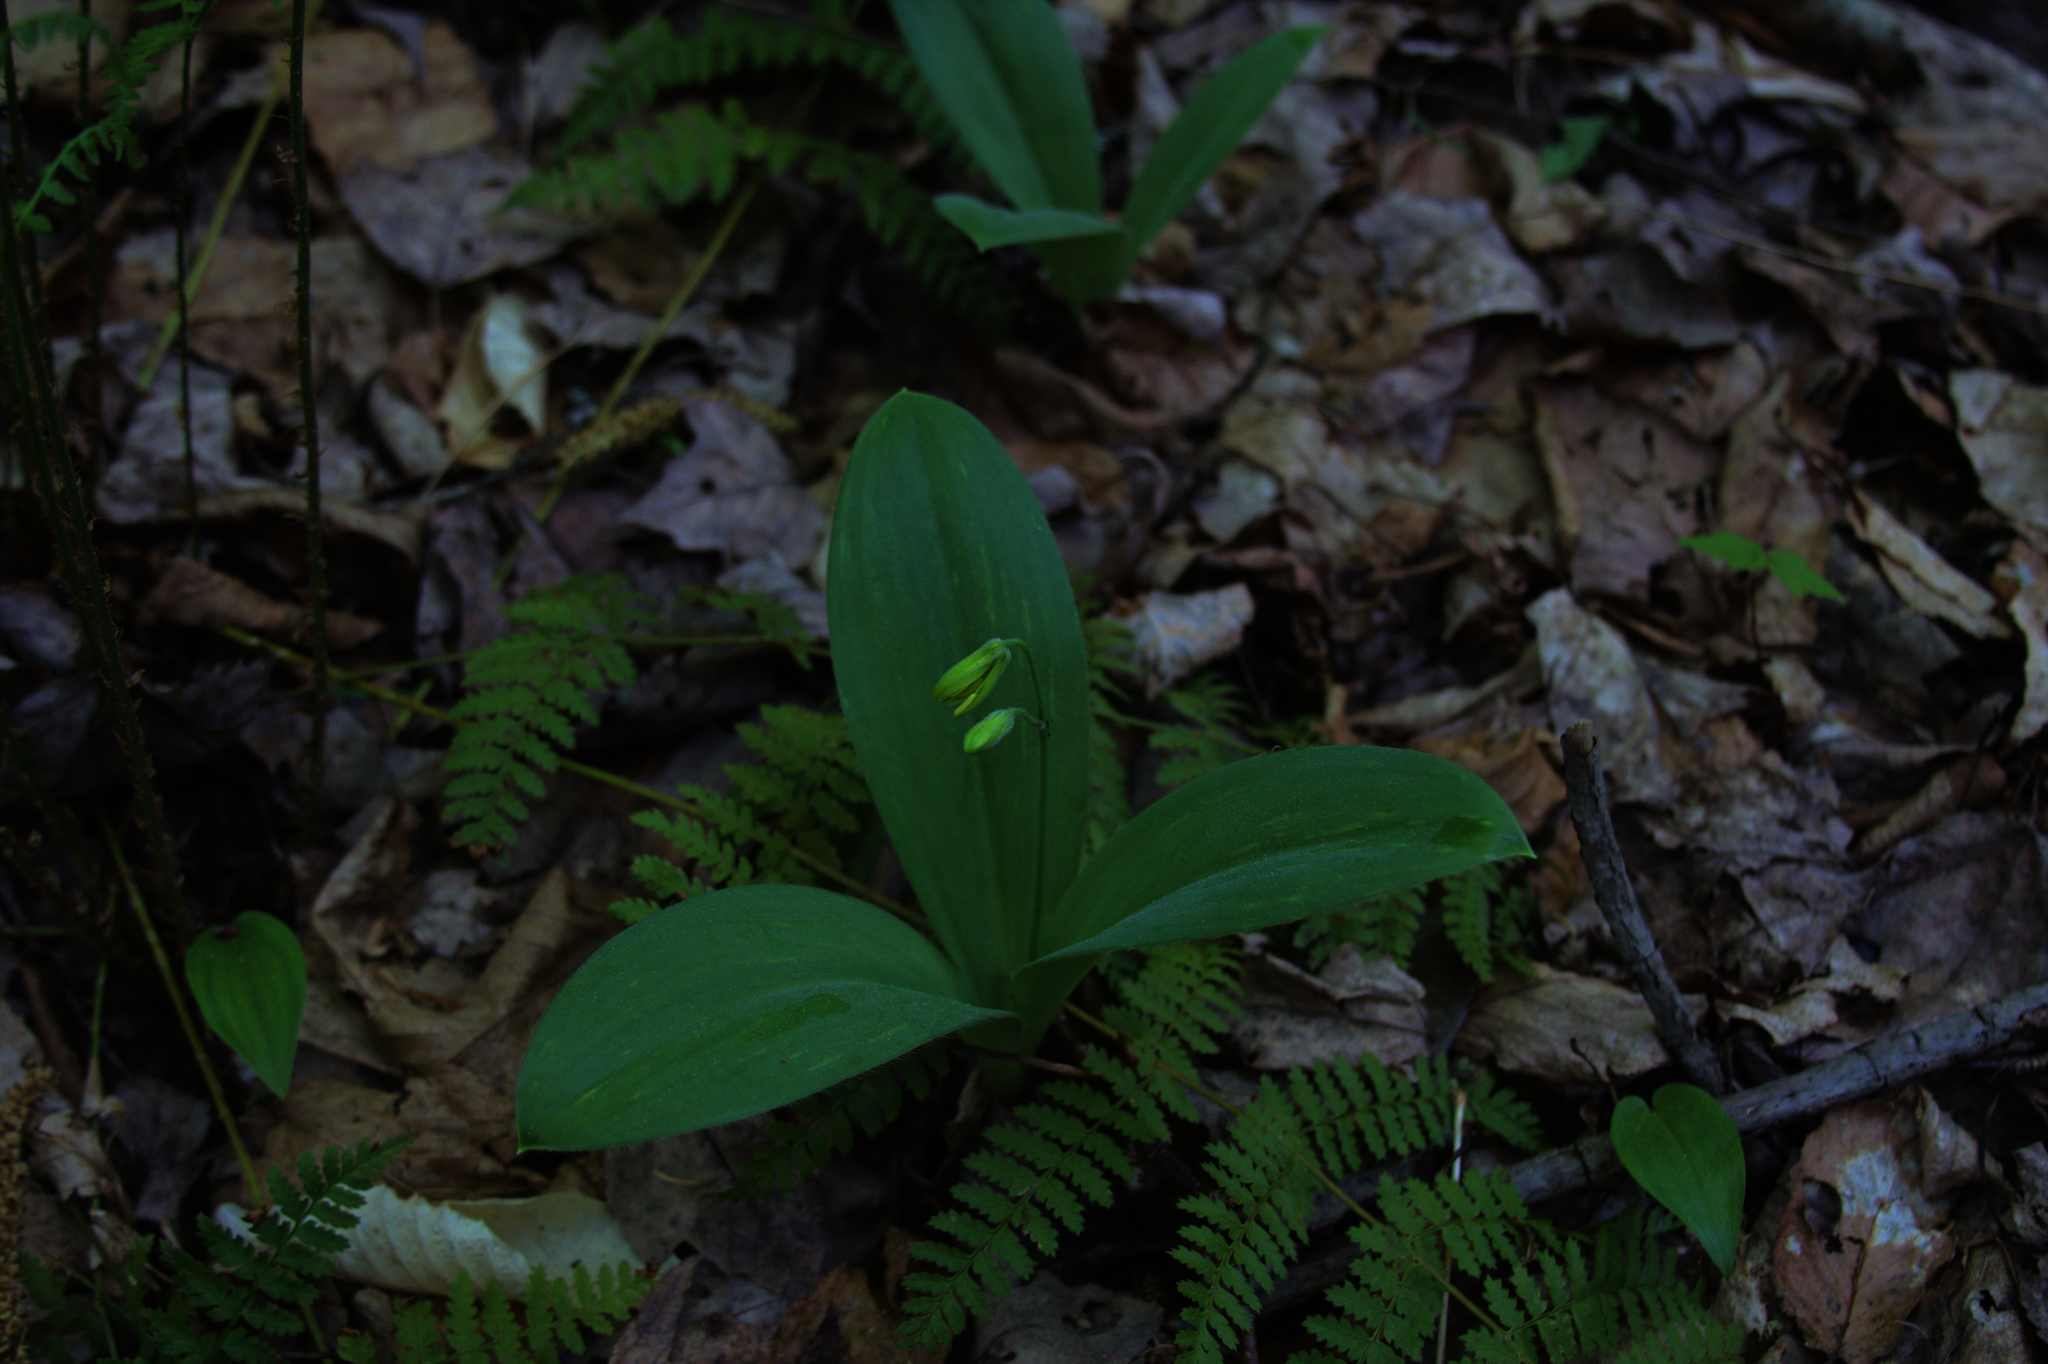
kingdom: Plantae
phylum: Tracheophyta
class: Liliopsida
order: Liliales
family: Liliaceae
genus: Clintonia
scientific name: Clintonia borealis
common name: Yellow clintonia
